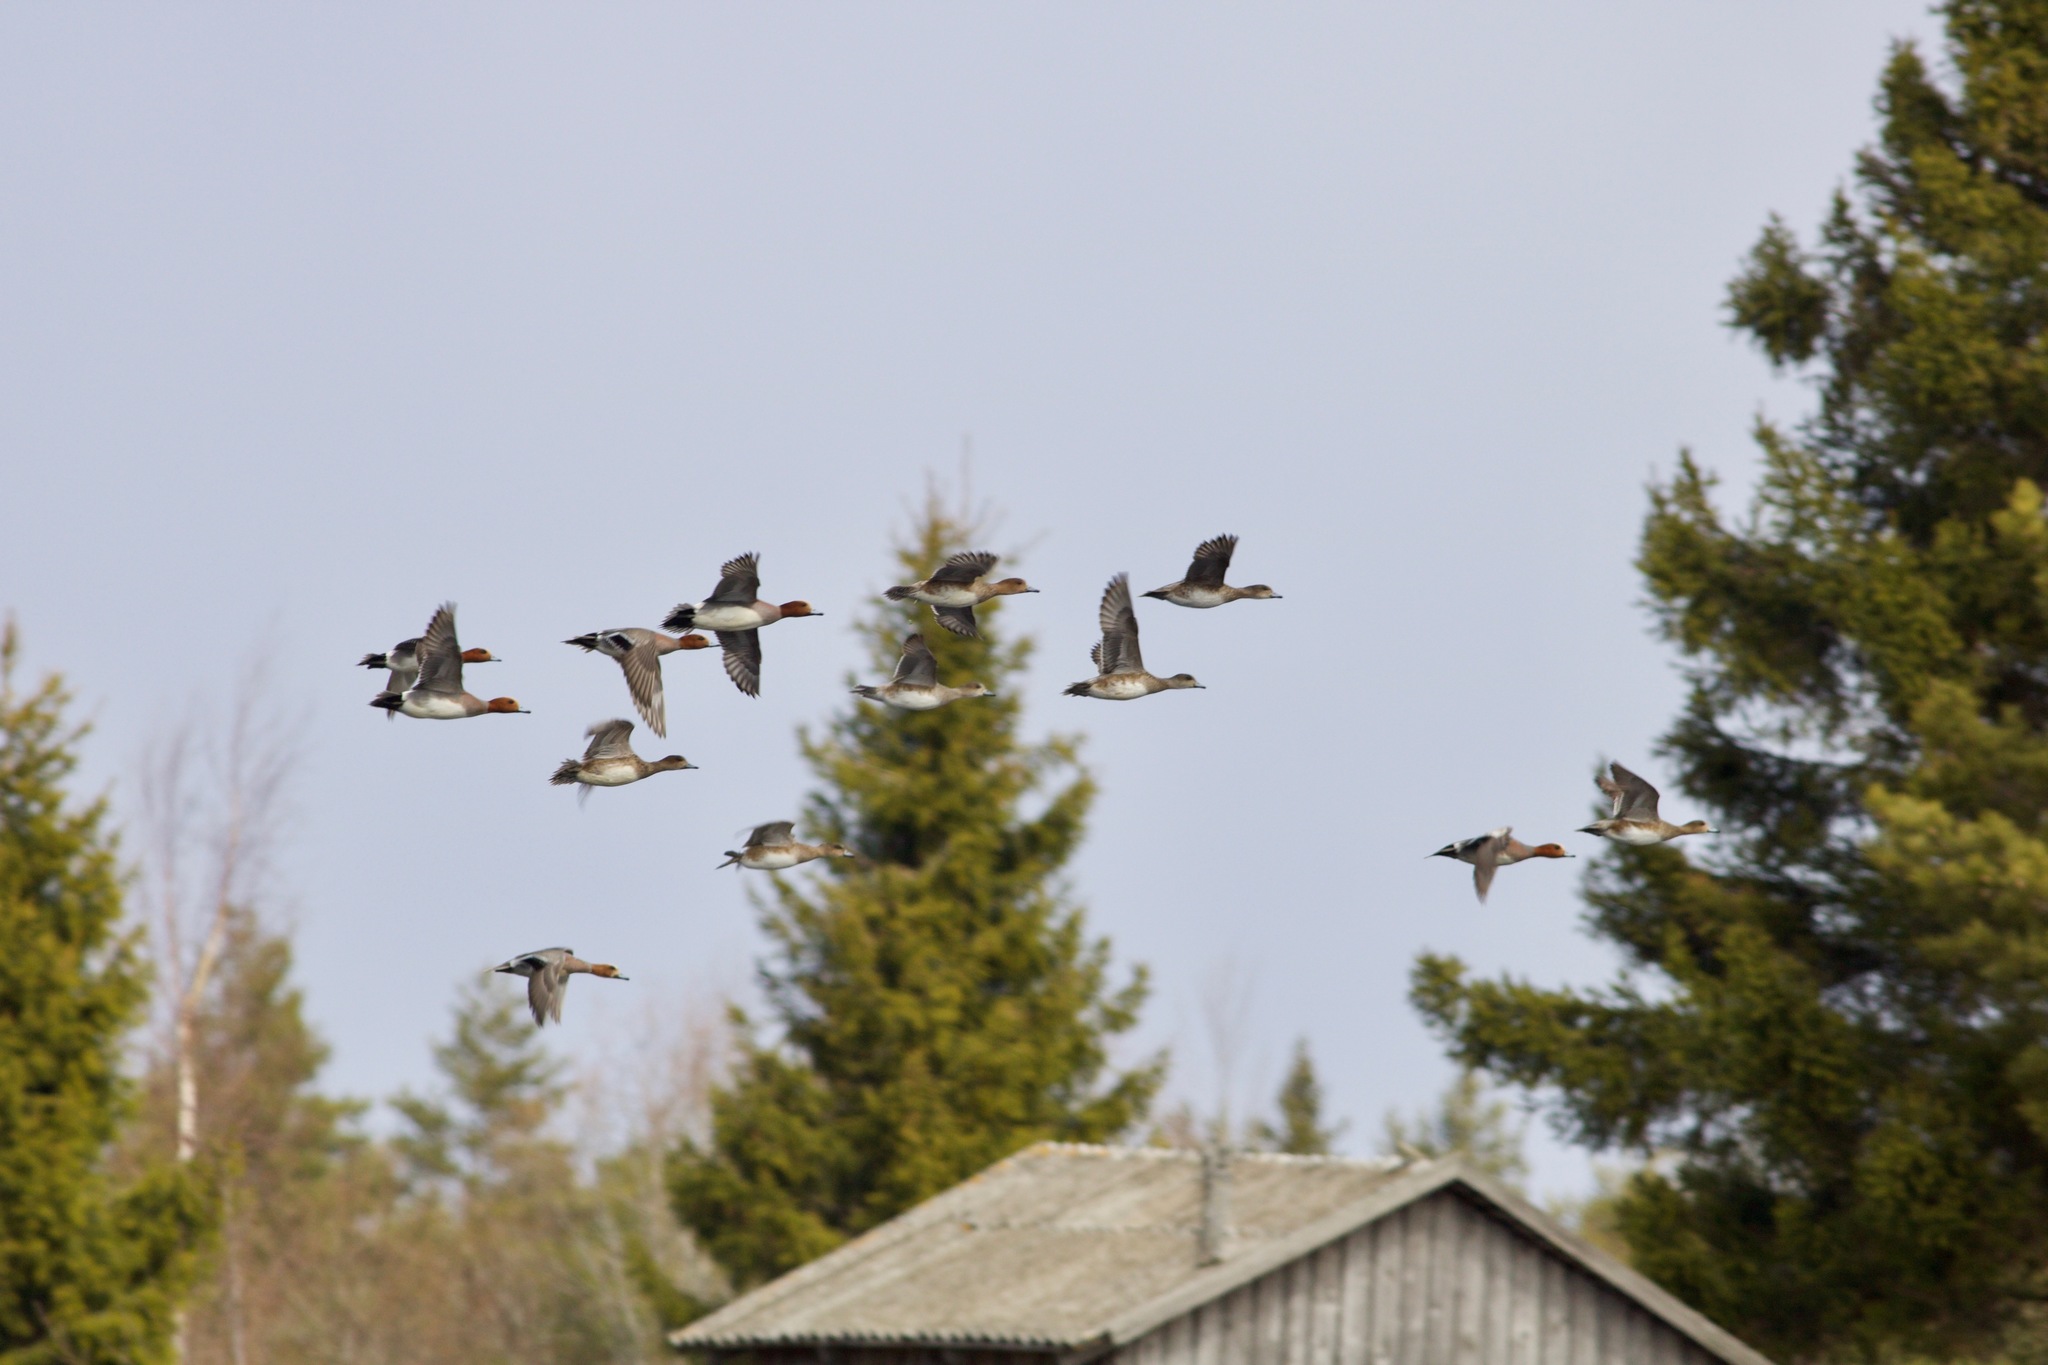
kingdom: Animalia
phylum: Chordata
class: Aves
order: Anseriformes
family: Anatidae
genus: Mareca
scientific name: Mareca penelope
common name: Eurasian wigeon
